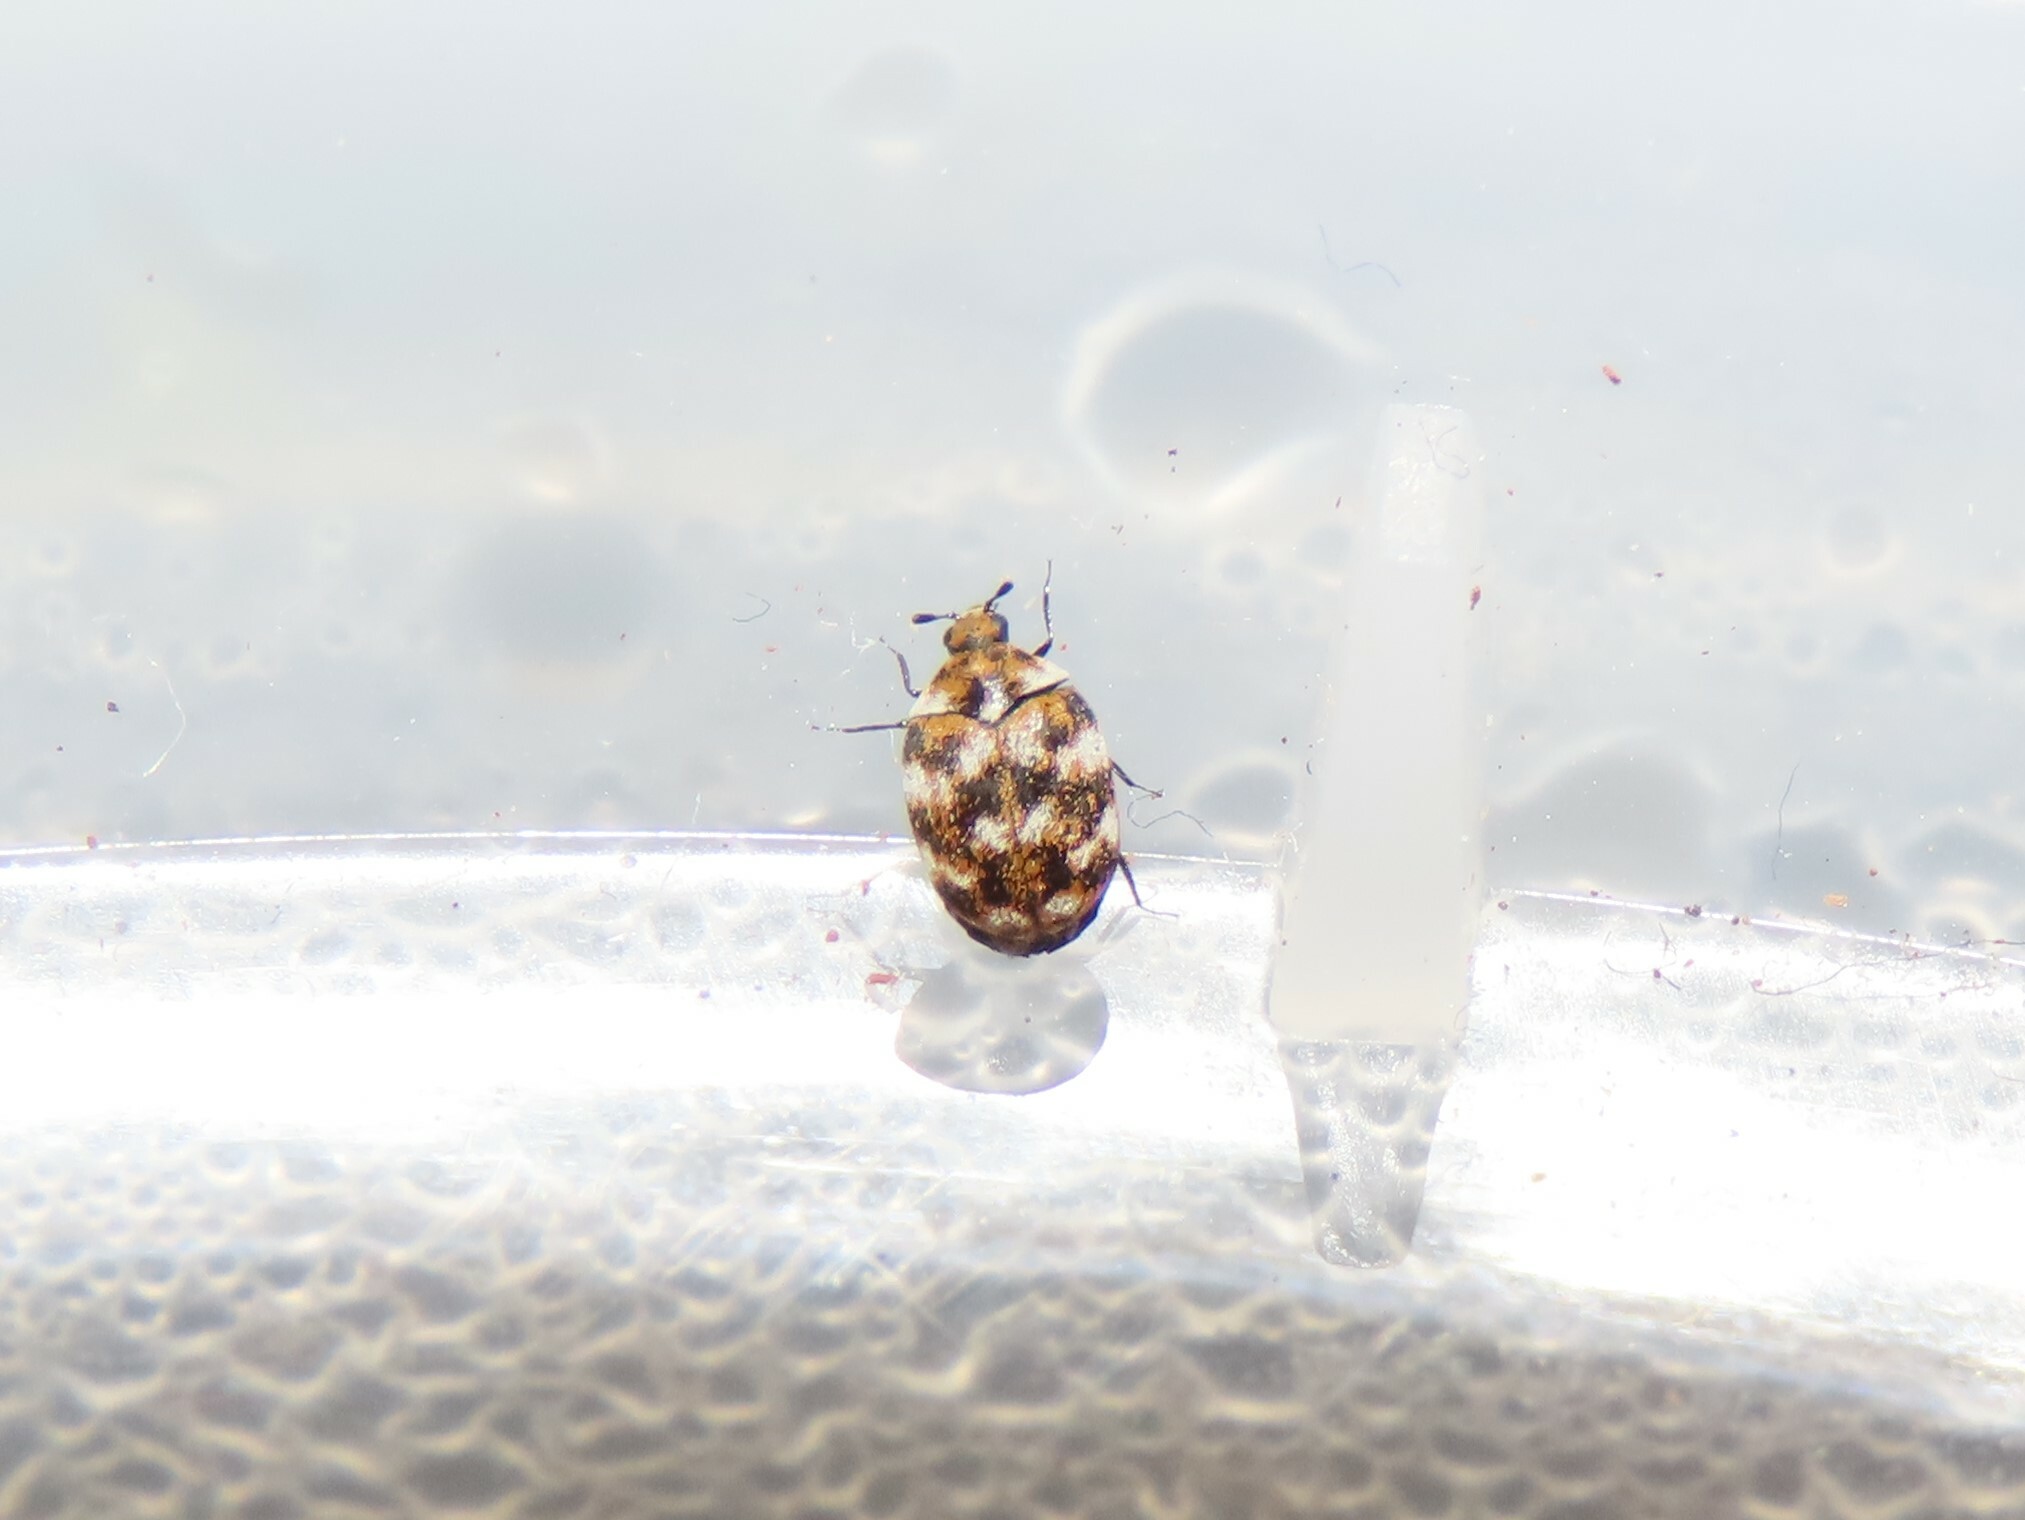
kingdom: Animalia
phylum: Arthropoda
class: Insecta
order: Coleoptera
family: Dermestidae
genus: Anthrenus
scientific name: Anthrenus verbasci
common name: Varied carpet beetle
